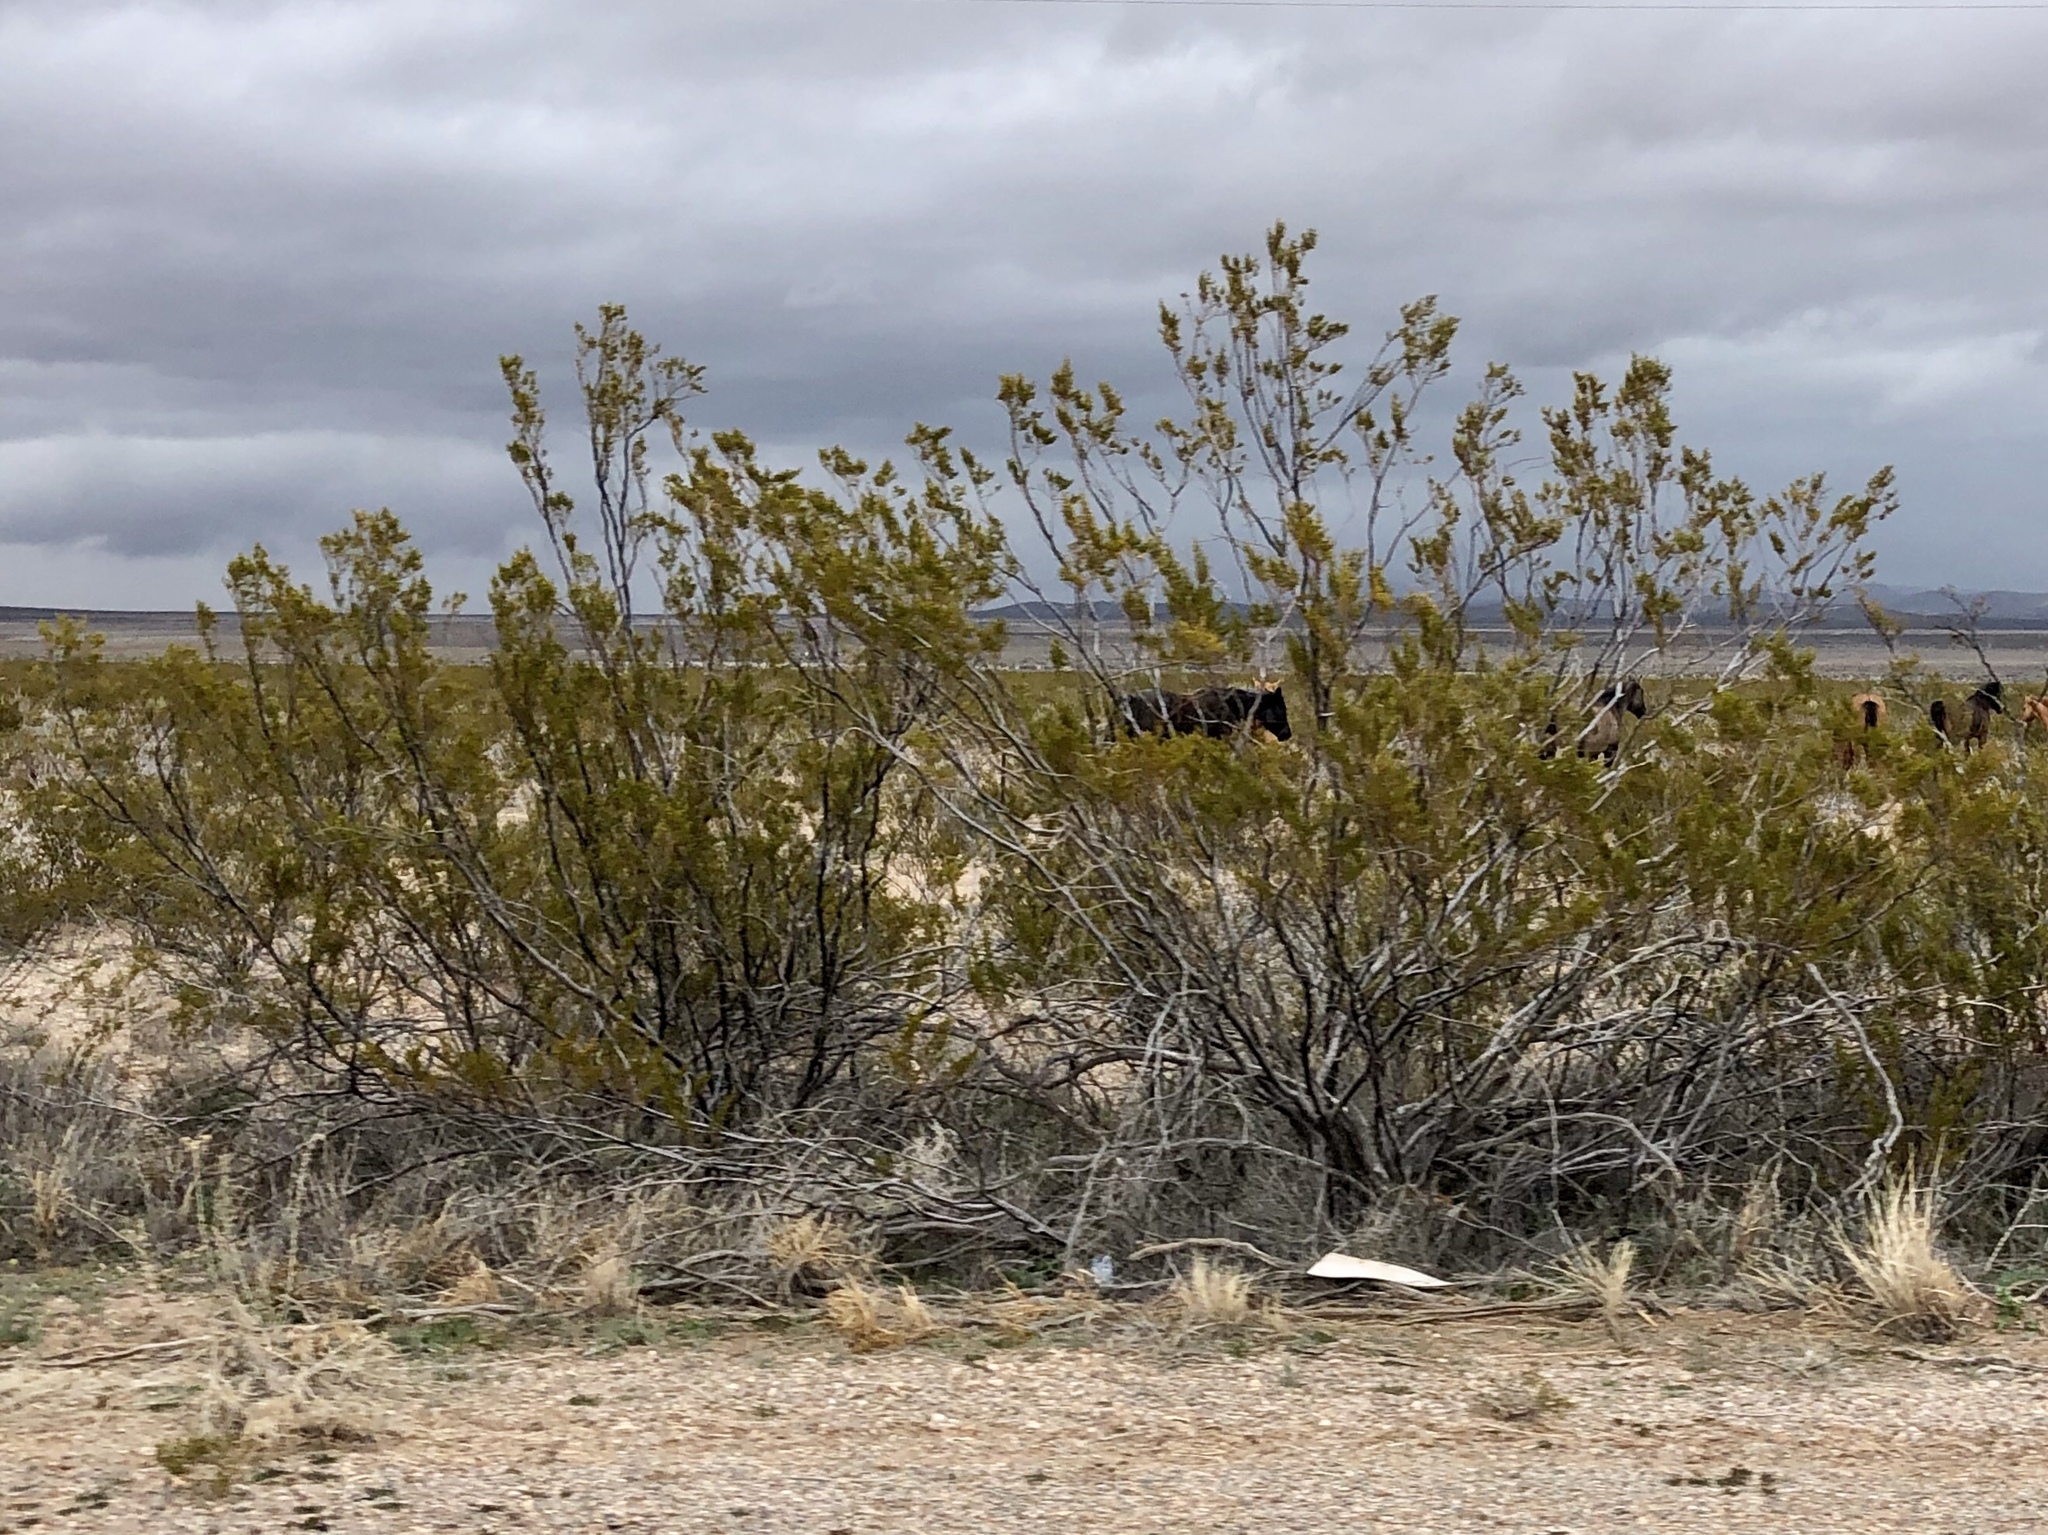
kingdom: Plantae
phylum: Tracheophyta
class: Magnoliopsida
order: Zygophyllales
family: Zygophyllaceae
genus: Larrea
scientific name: Larrea tridentata
